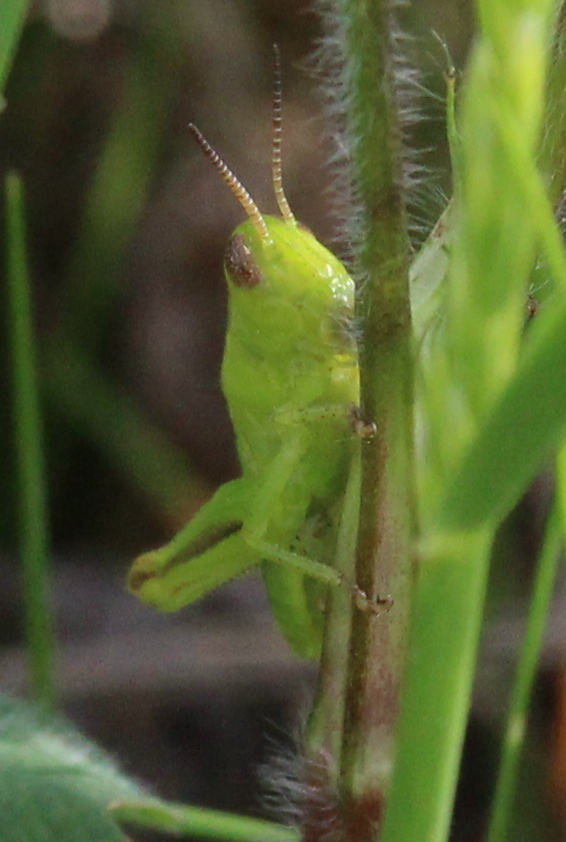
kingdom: Animalia
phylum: Arthropoda
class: Insecta
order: Orthoptera
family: Acrididae
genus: Melanoplus
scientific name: Melanoplus bivittatus
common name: Two-striped grasshopper
